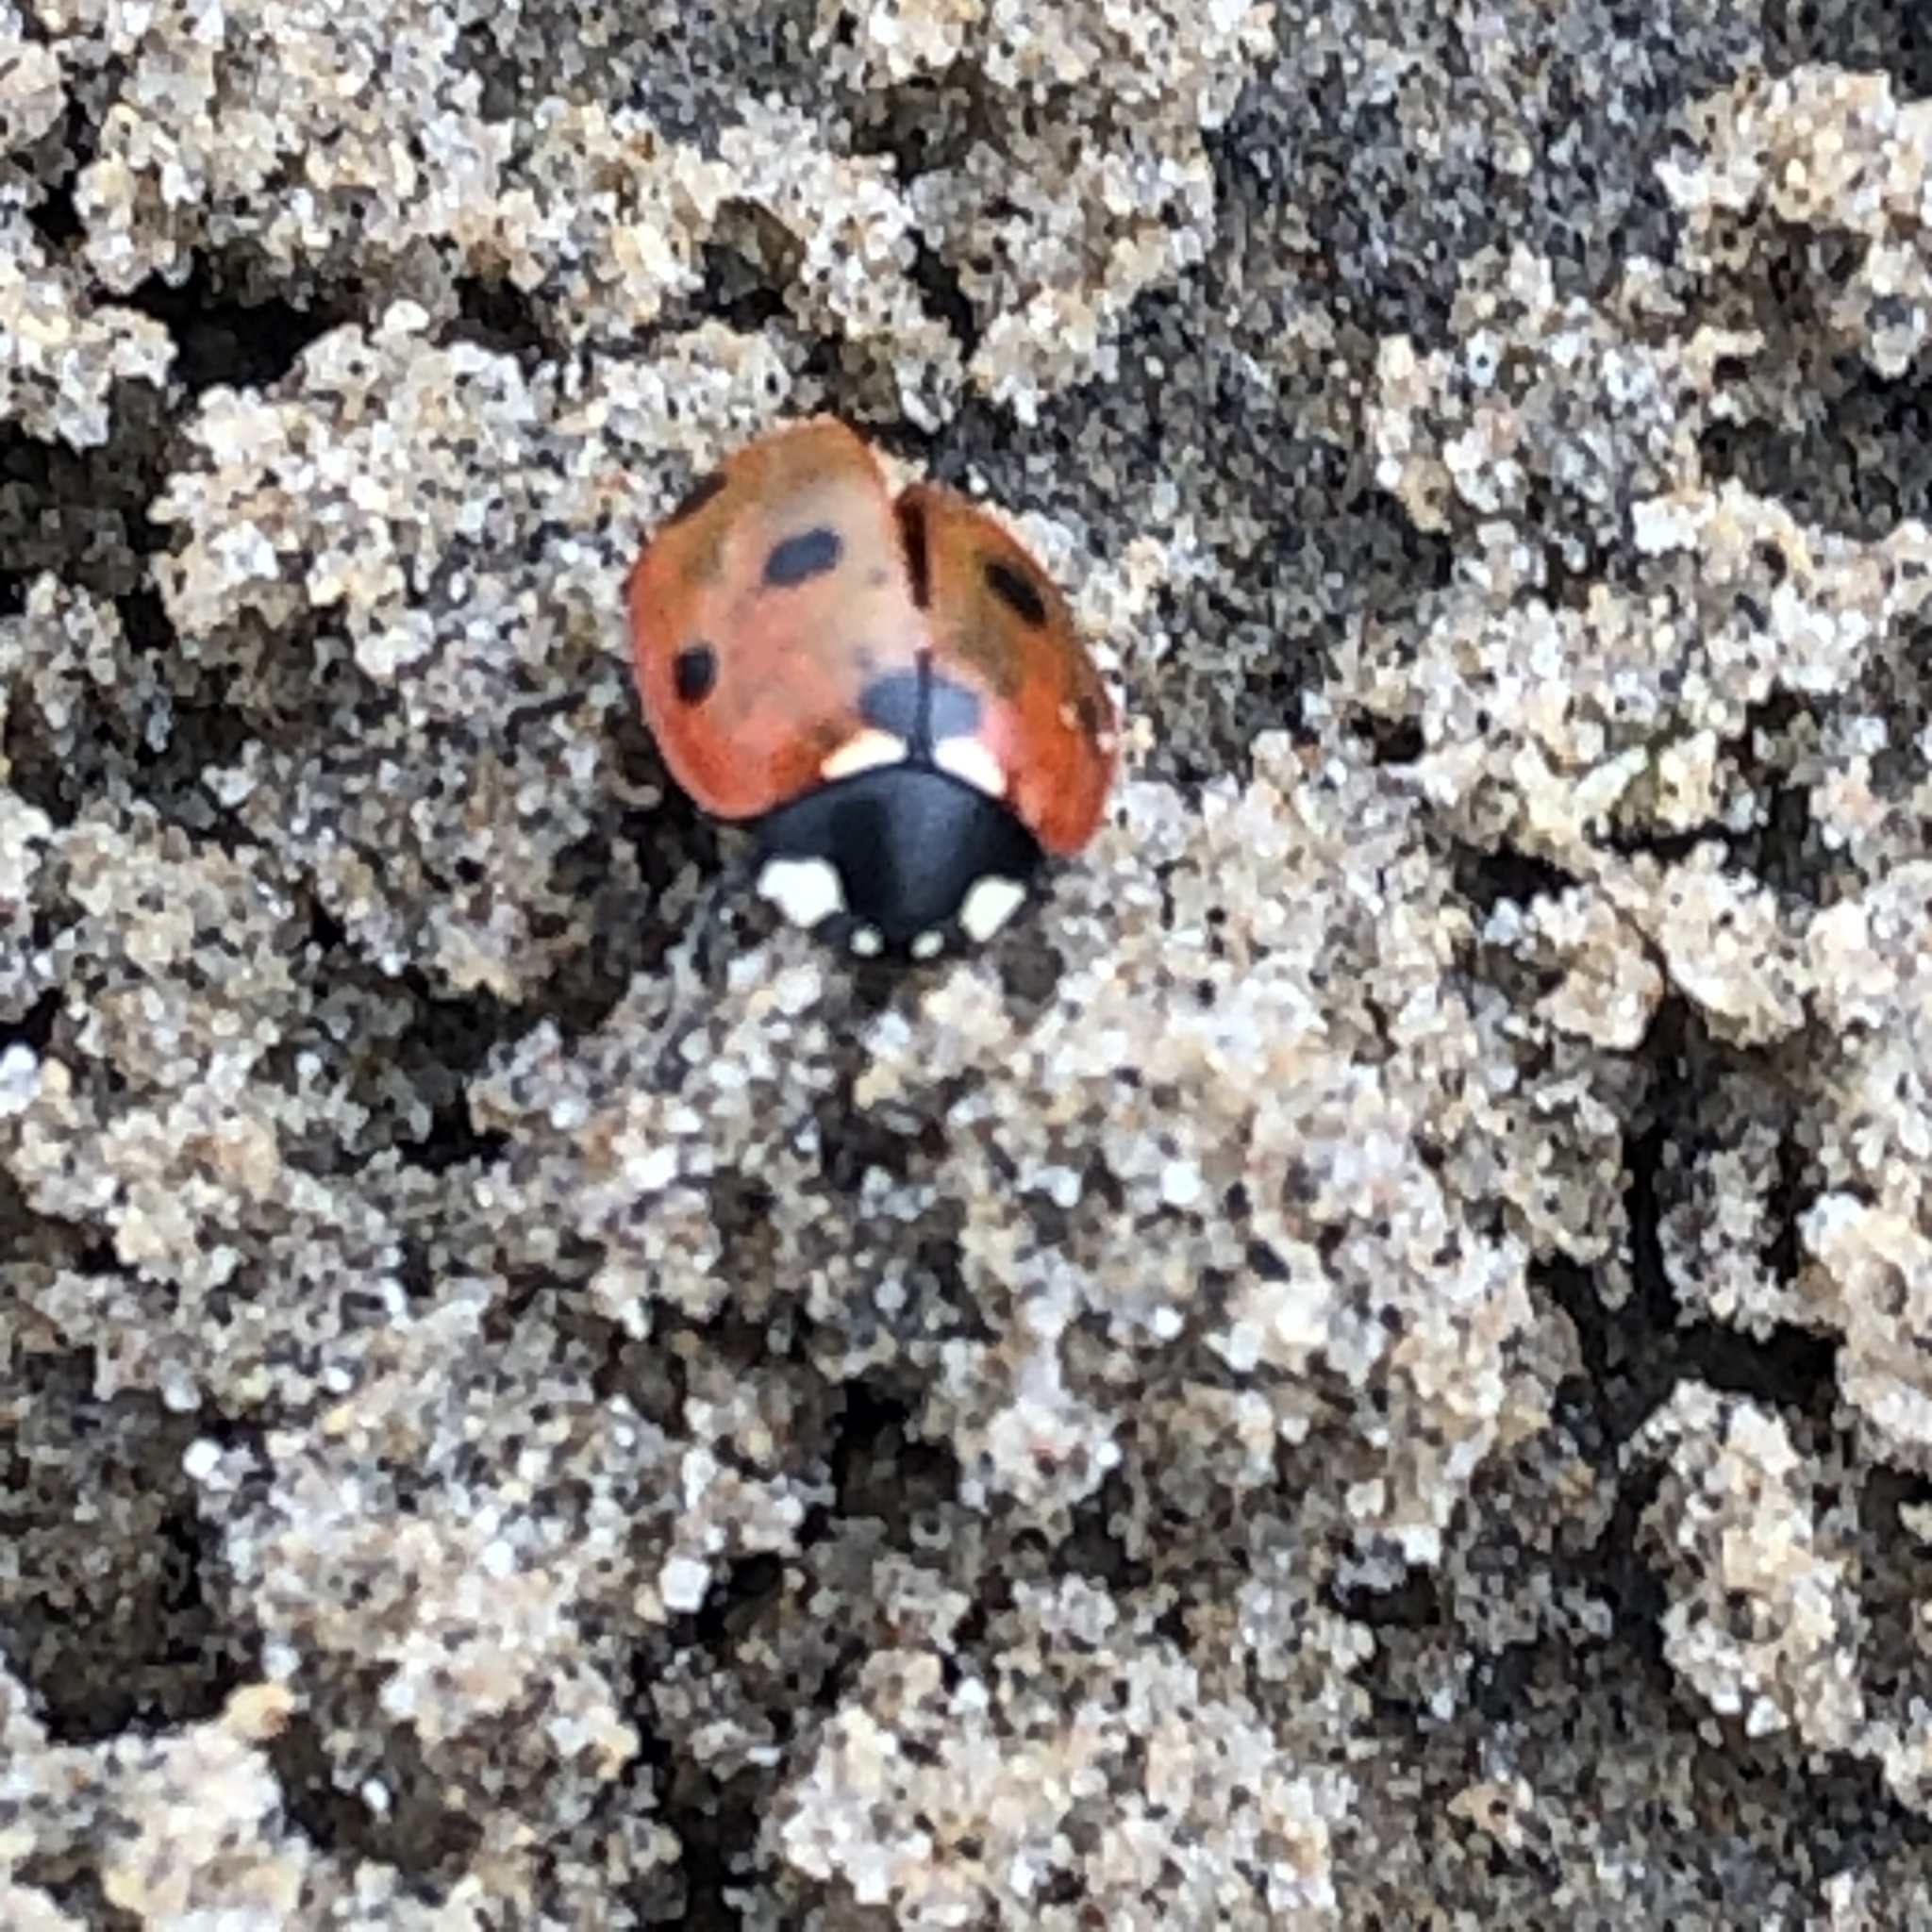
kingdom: Animalia
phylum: Arthropoda
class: Insecta
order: Coleoptera
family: Coccinellidae
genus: Coccinella
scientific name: Coccinella septempunctata
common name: Sevenspotted lady beetle
